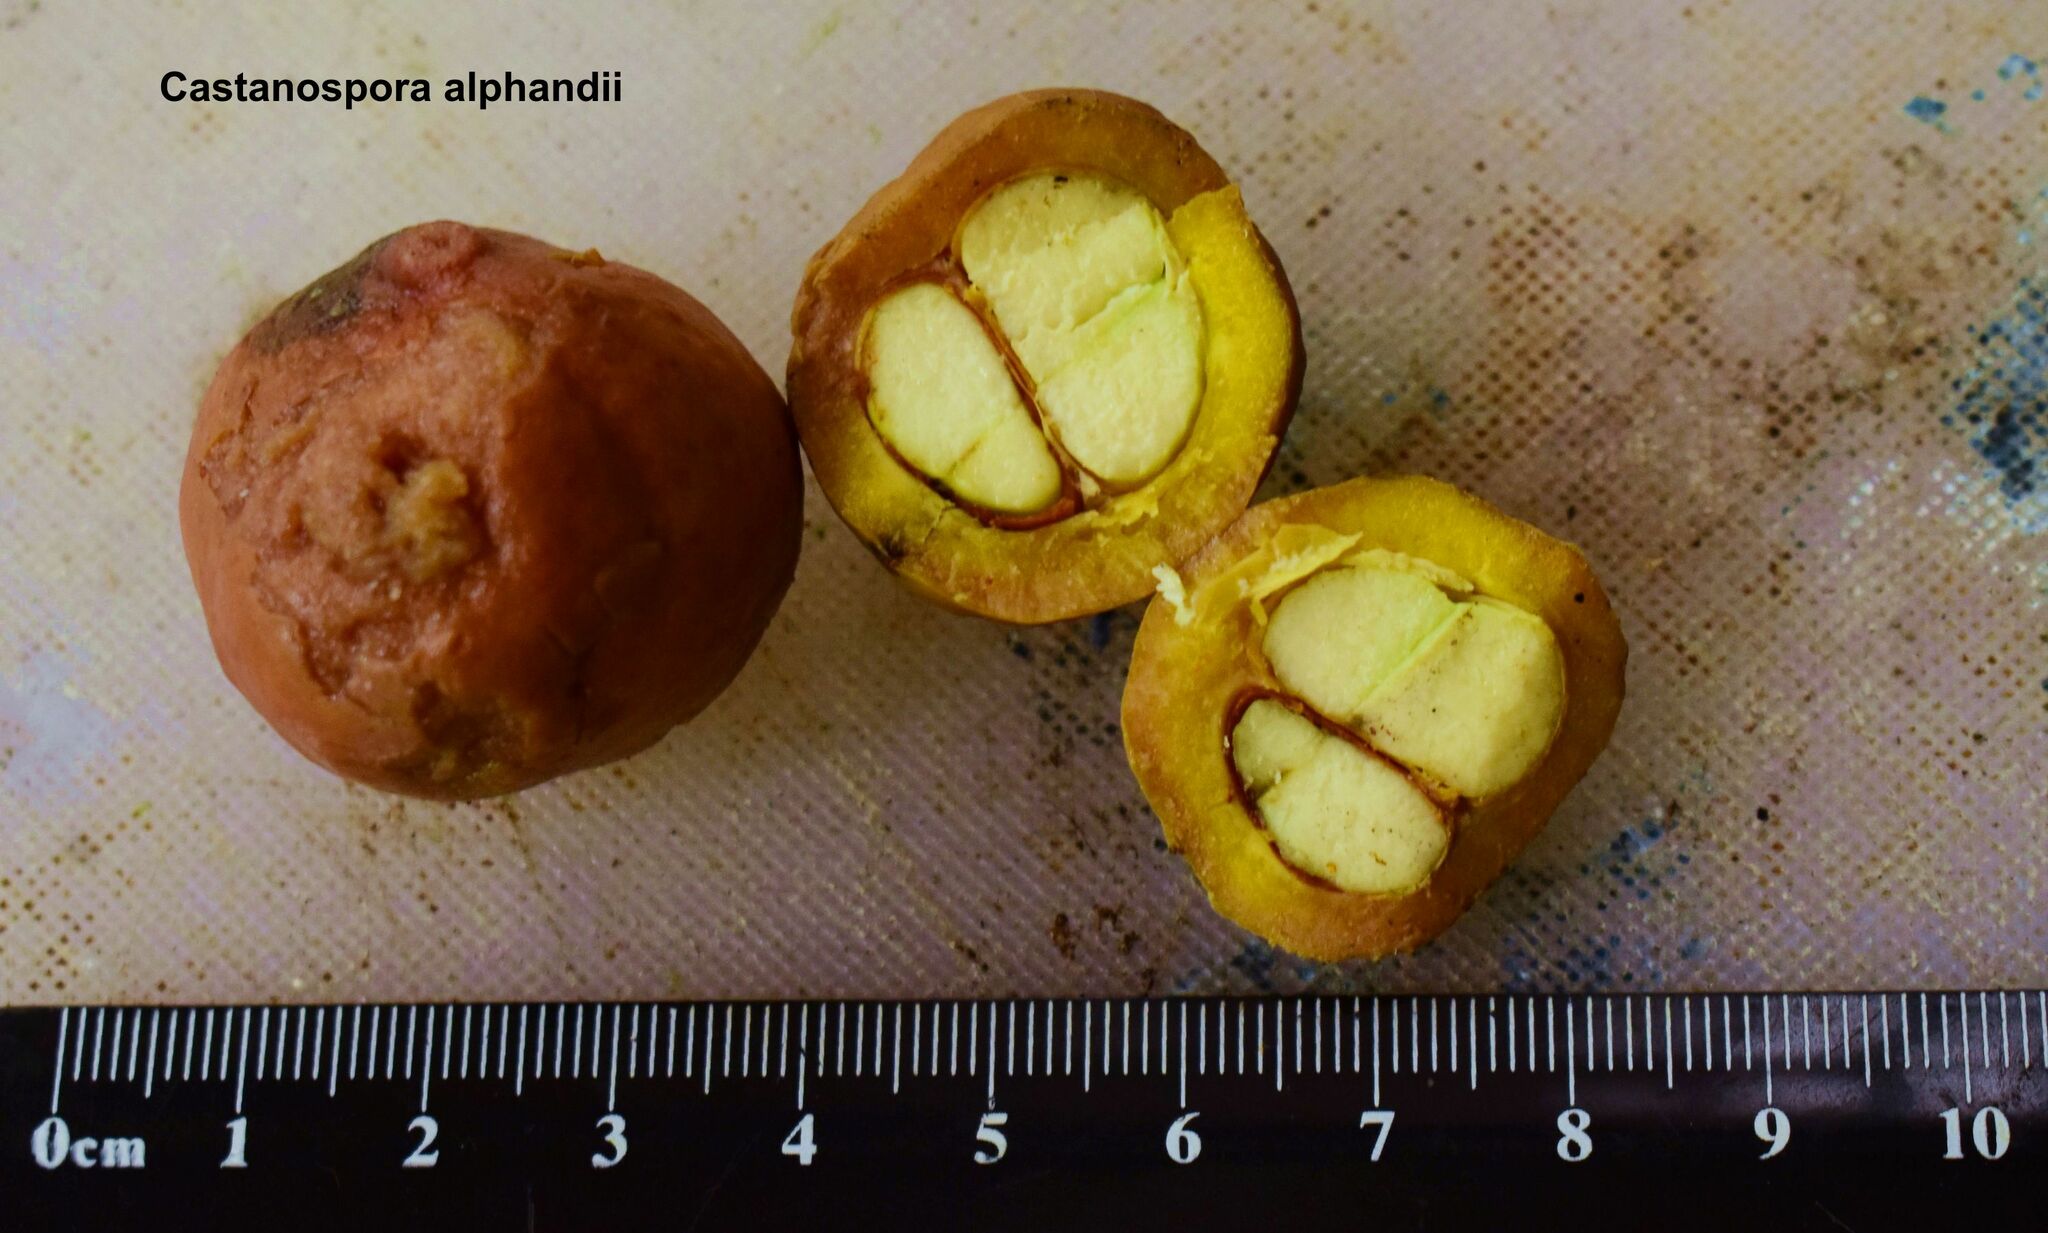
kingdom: Plantae
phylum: Tracheophyta
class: Magnoliopsida
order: Sapindales
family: Sapindaceae
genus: Castanospora
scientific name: Castanospora alphandii
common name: Brown-tamarind
